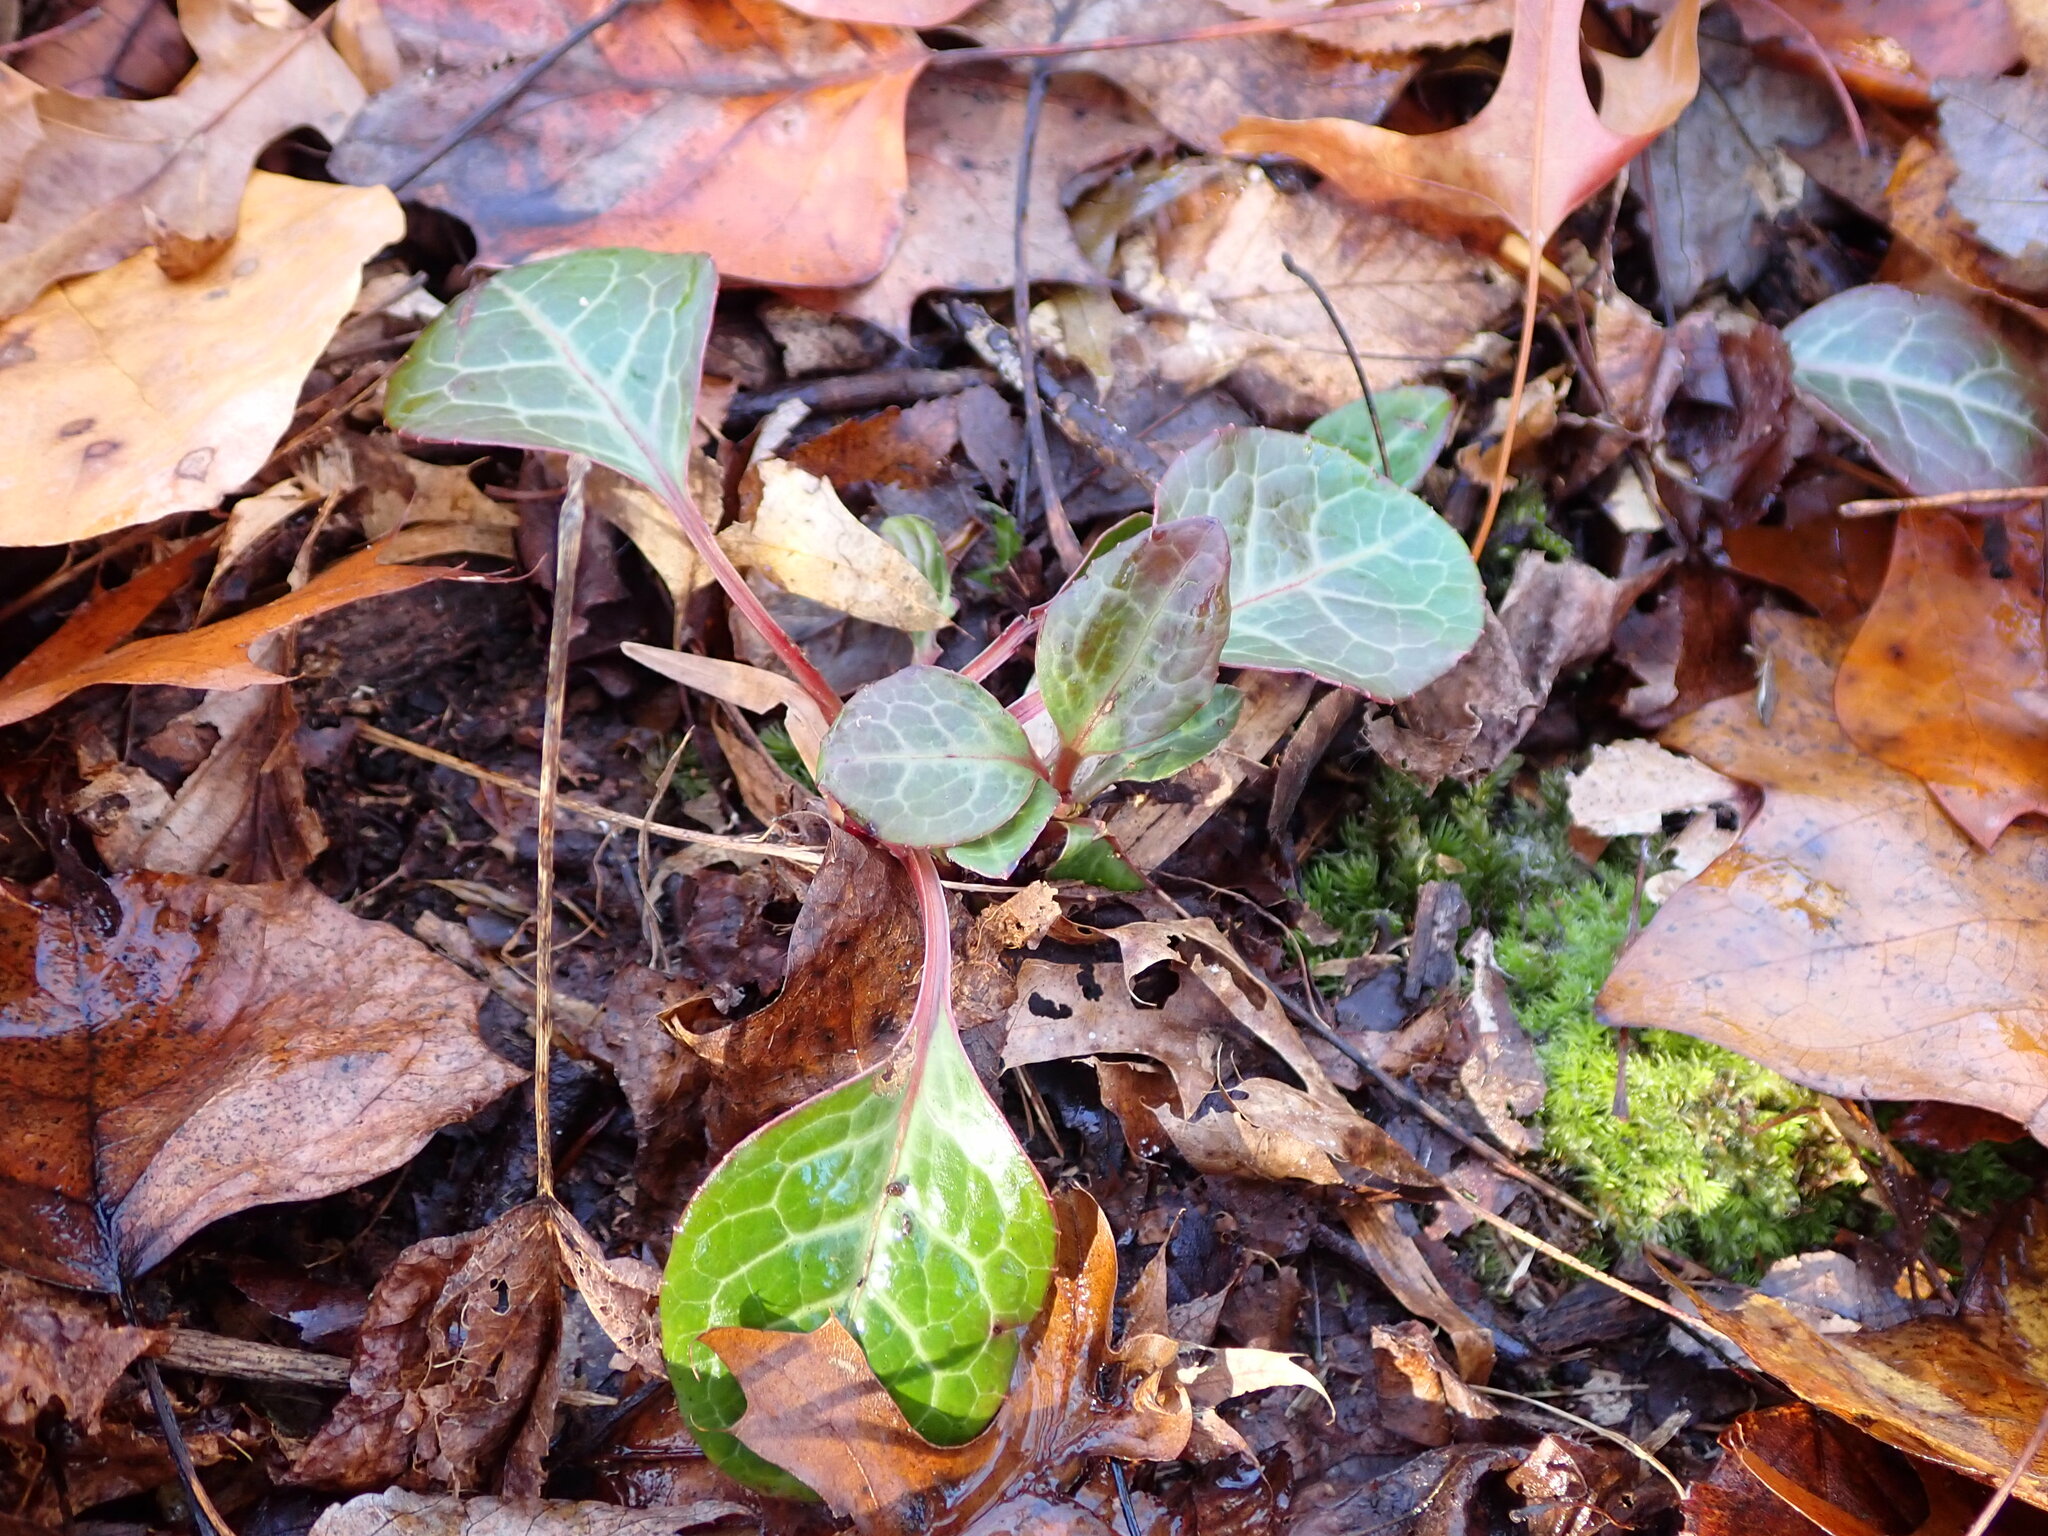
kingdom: Plantae
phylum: Tracheophyta
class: Magnoliopsida
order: Ericales
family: Ericaceae
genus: Pyrola
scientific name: Pyrola americana
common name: American wintergreen
